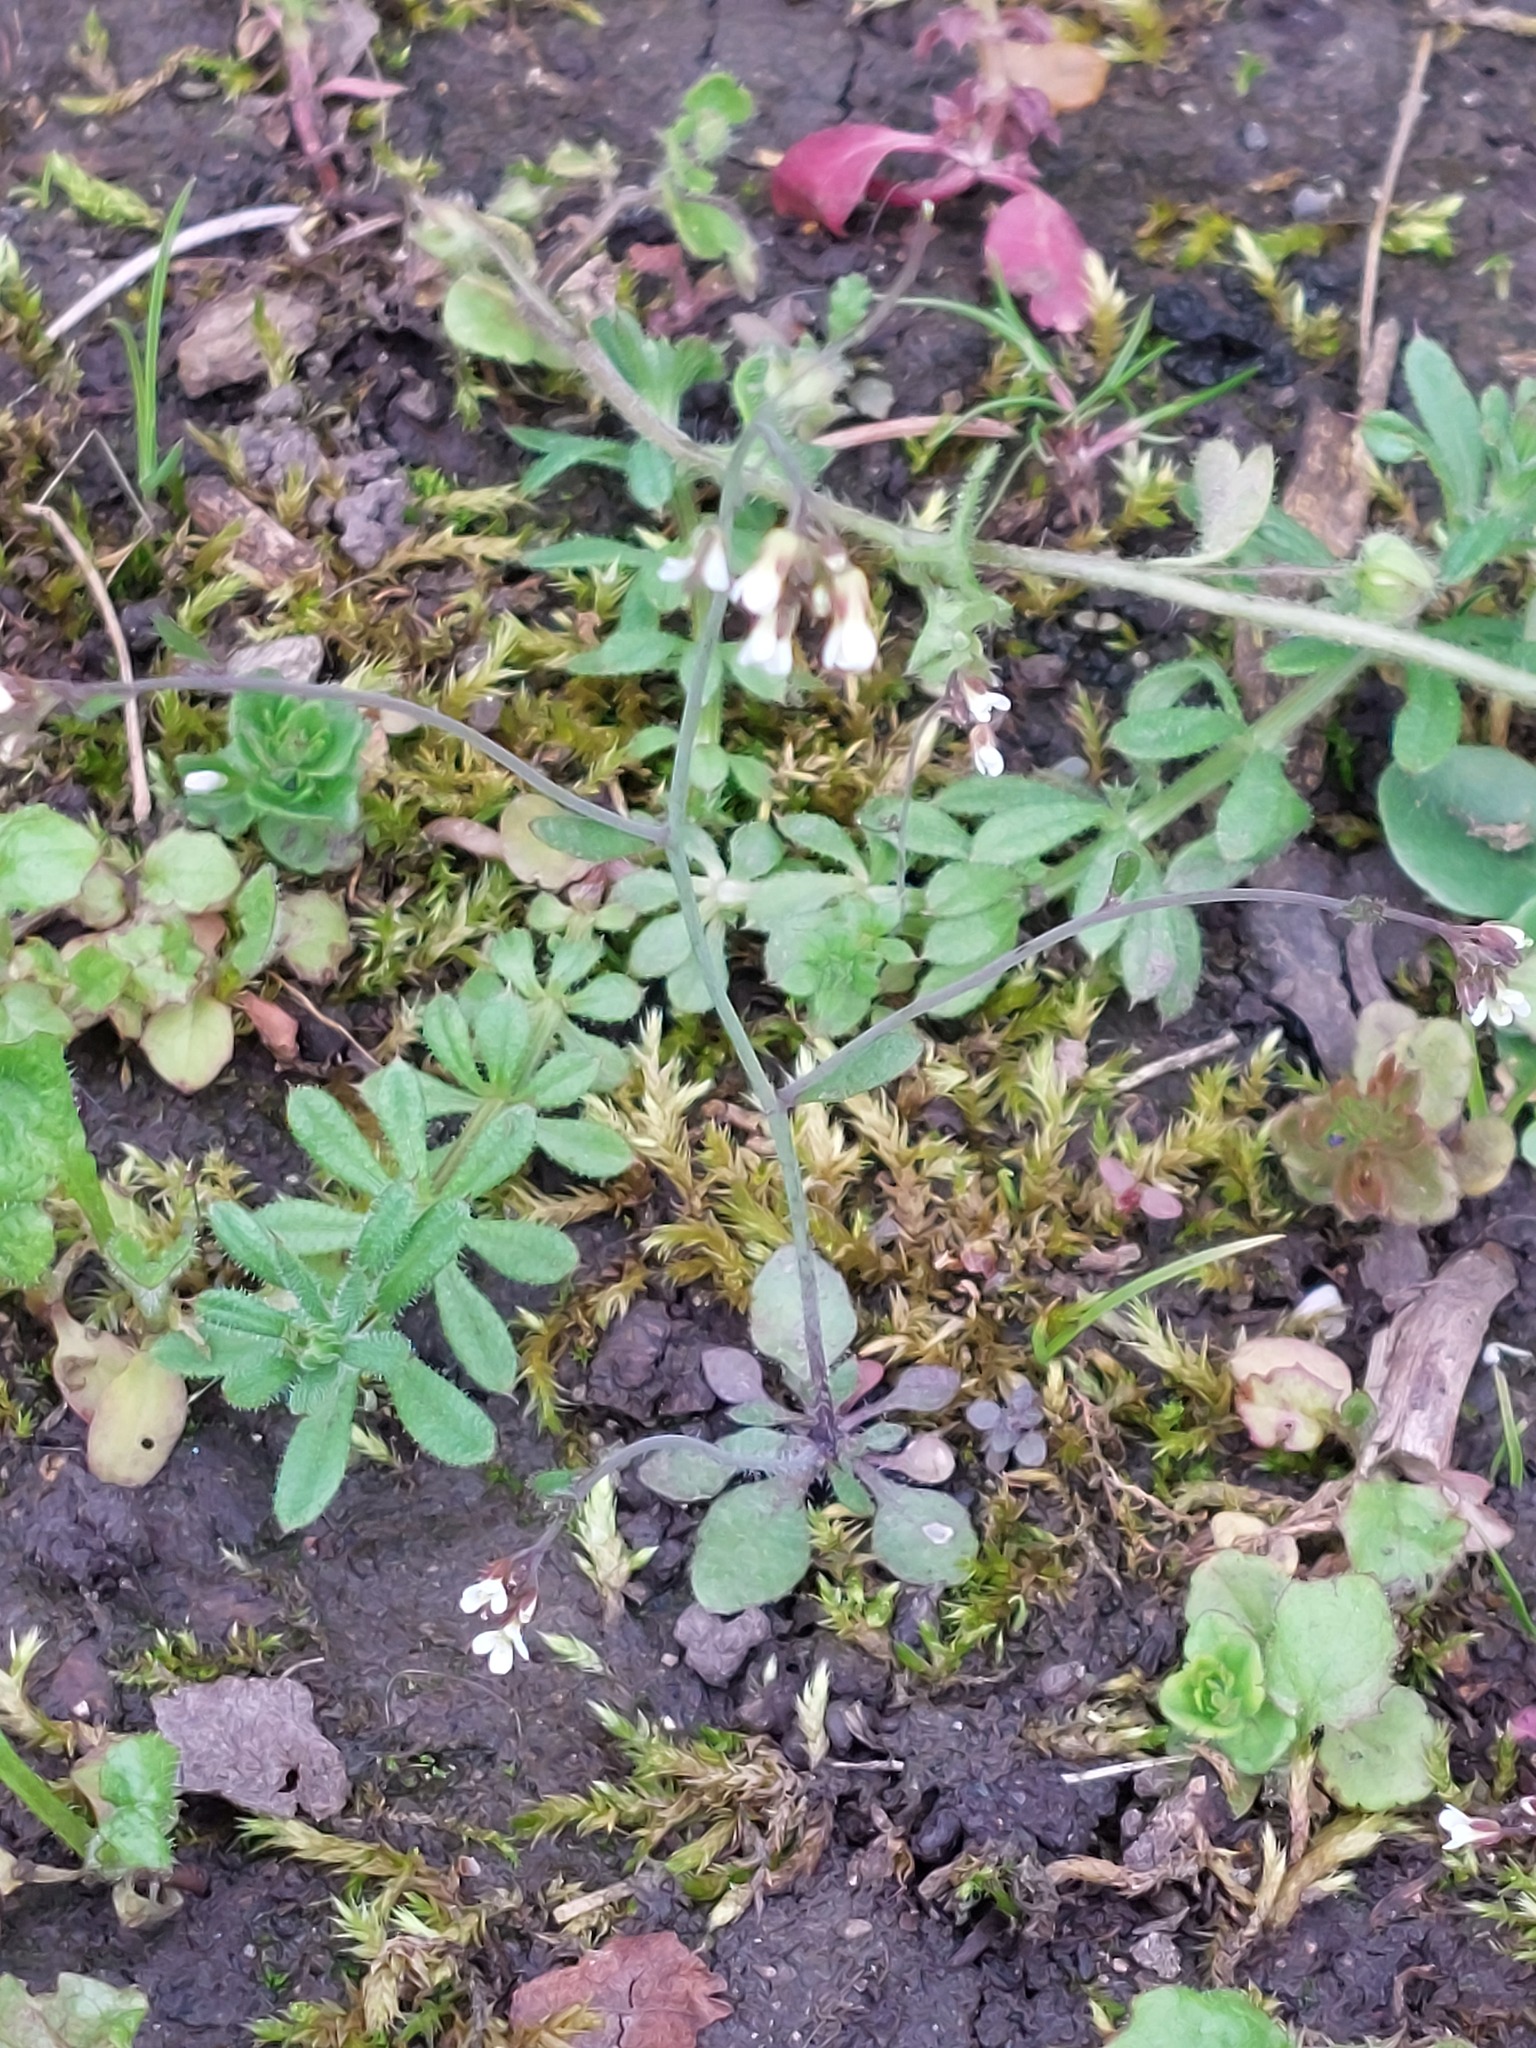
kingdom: Plantae
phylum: Tracheophyta
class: Magnoliopsida
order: Brassicales
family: Brassicaceae
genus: Arabidopsis
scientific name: Arabidopsis thaliana
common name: Thale cress
